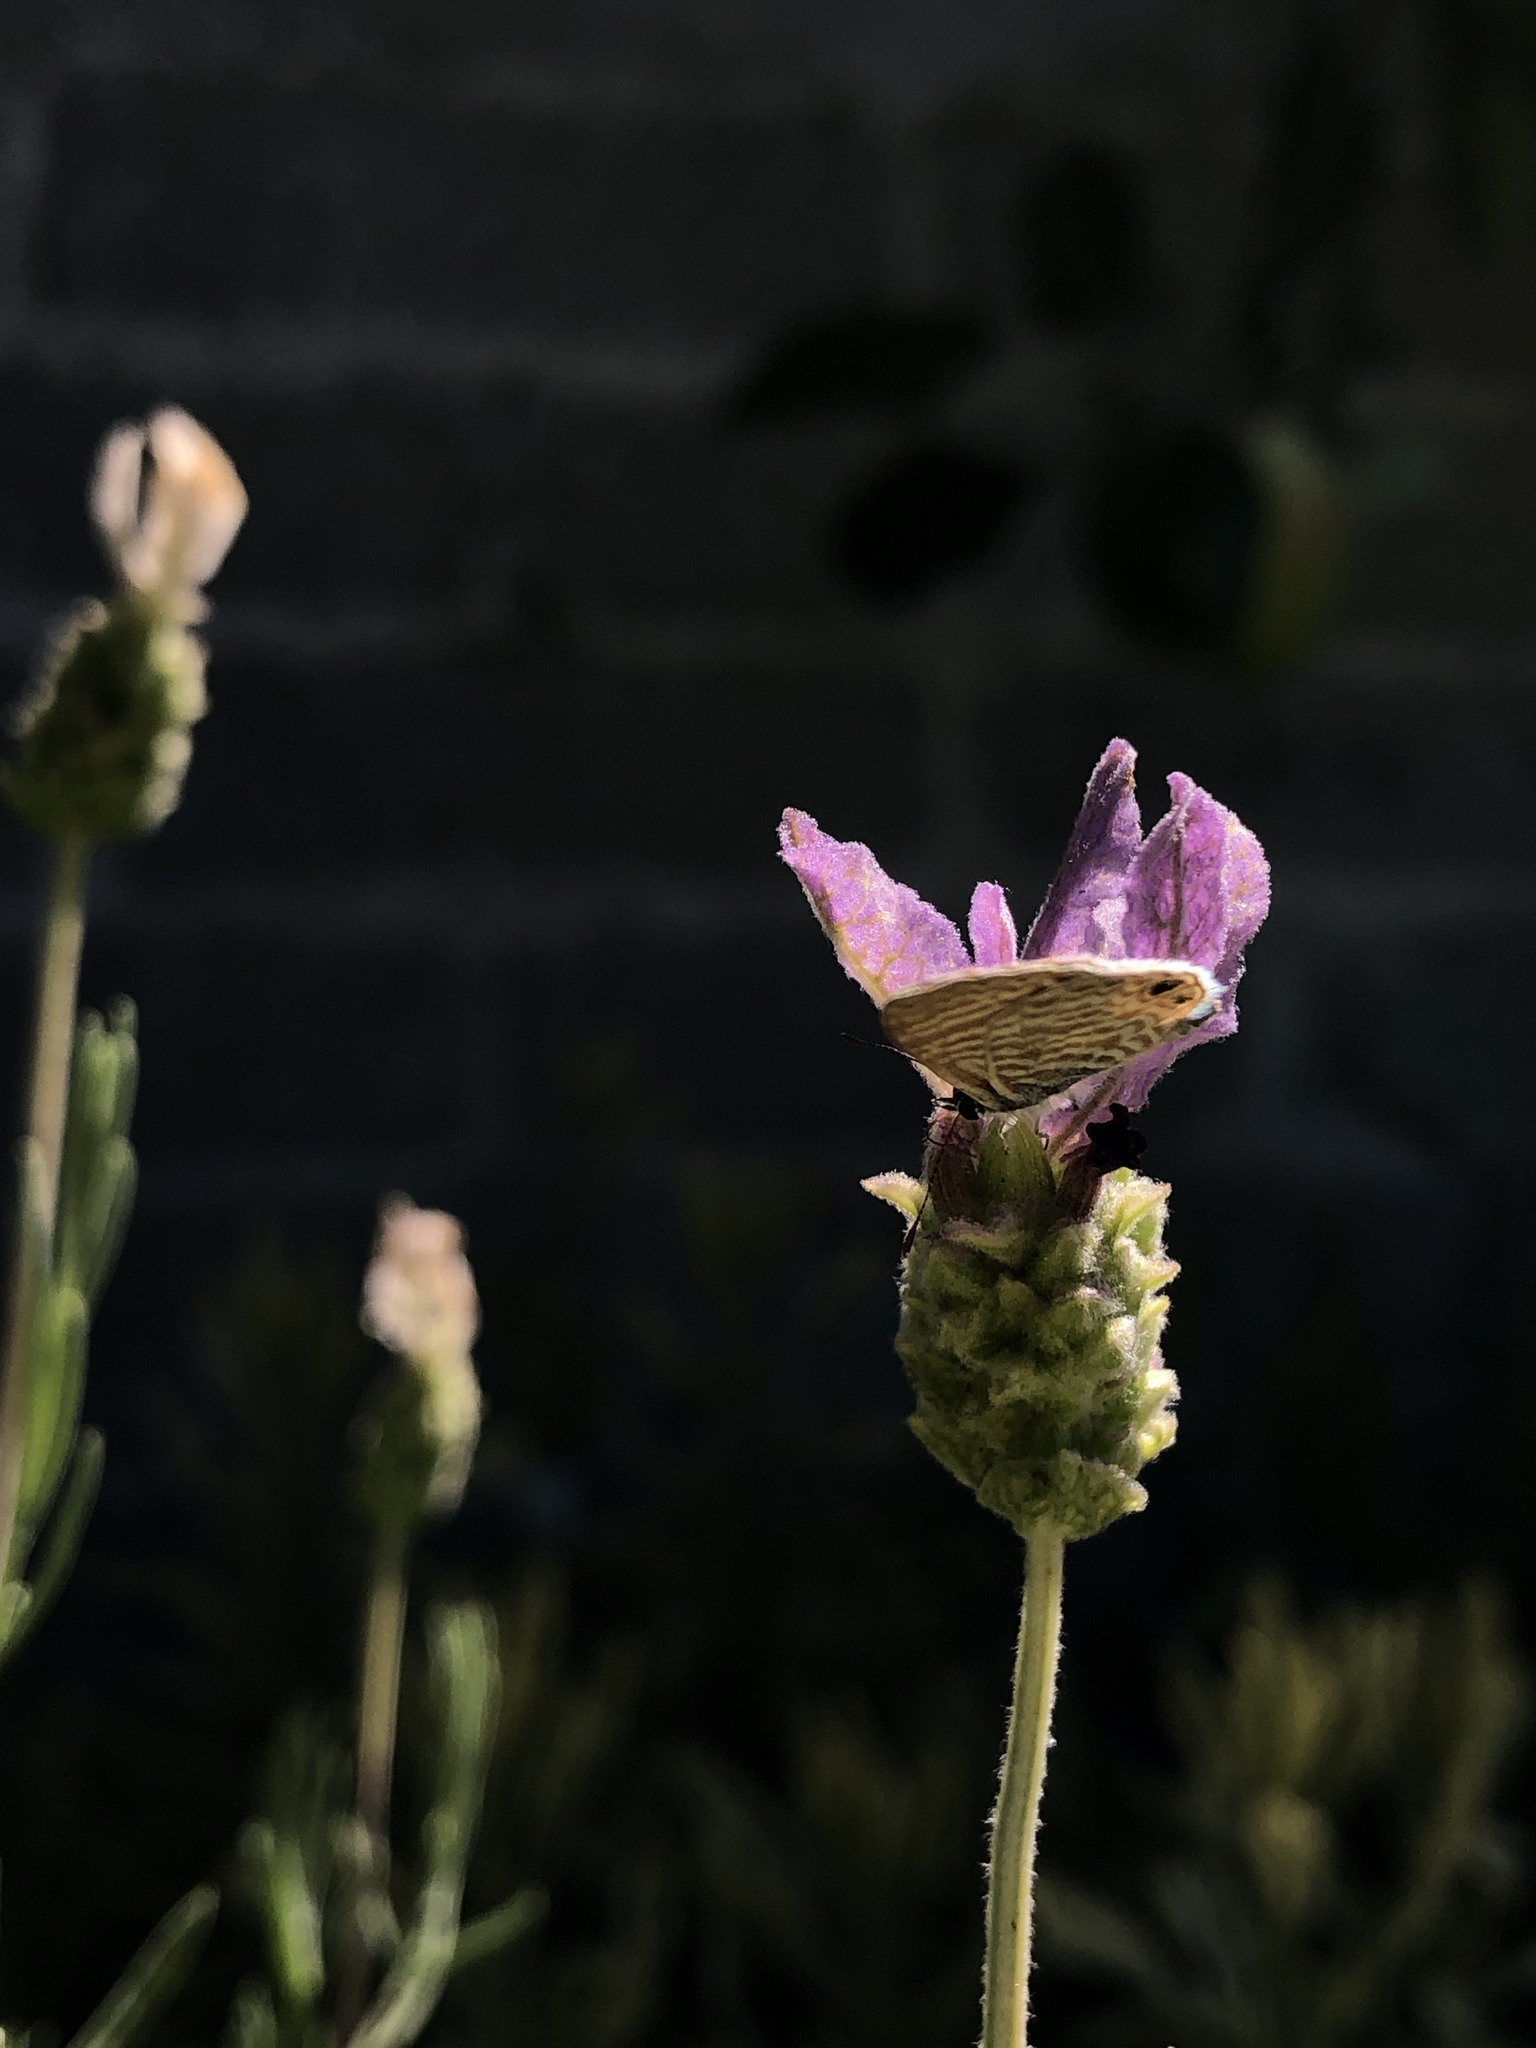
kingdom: Animalia
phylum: Arthropoda
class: Insecta
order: Lepidoptera
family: Lycaenidae
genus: Leptotes
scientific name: Leptotes marina
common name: Marine blue
